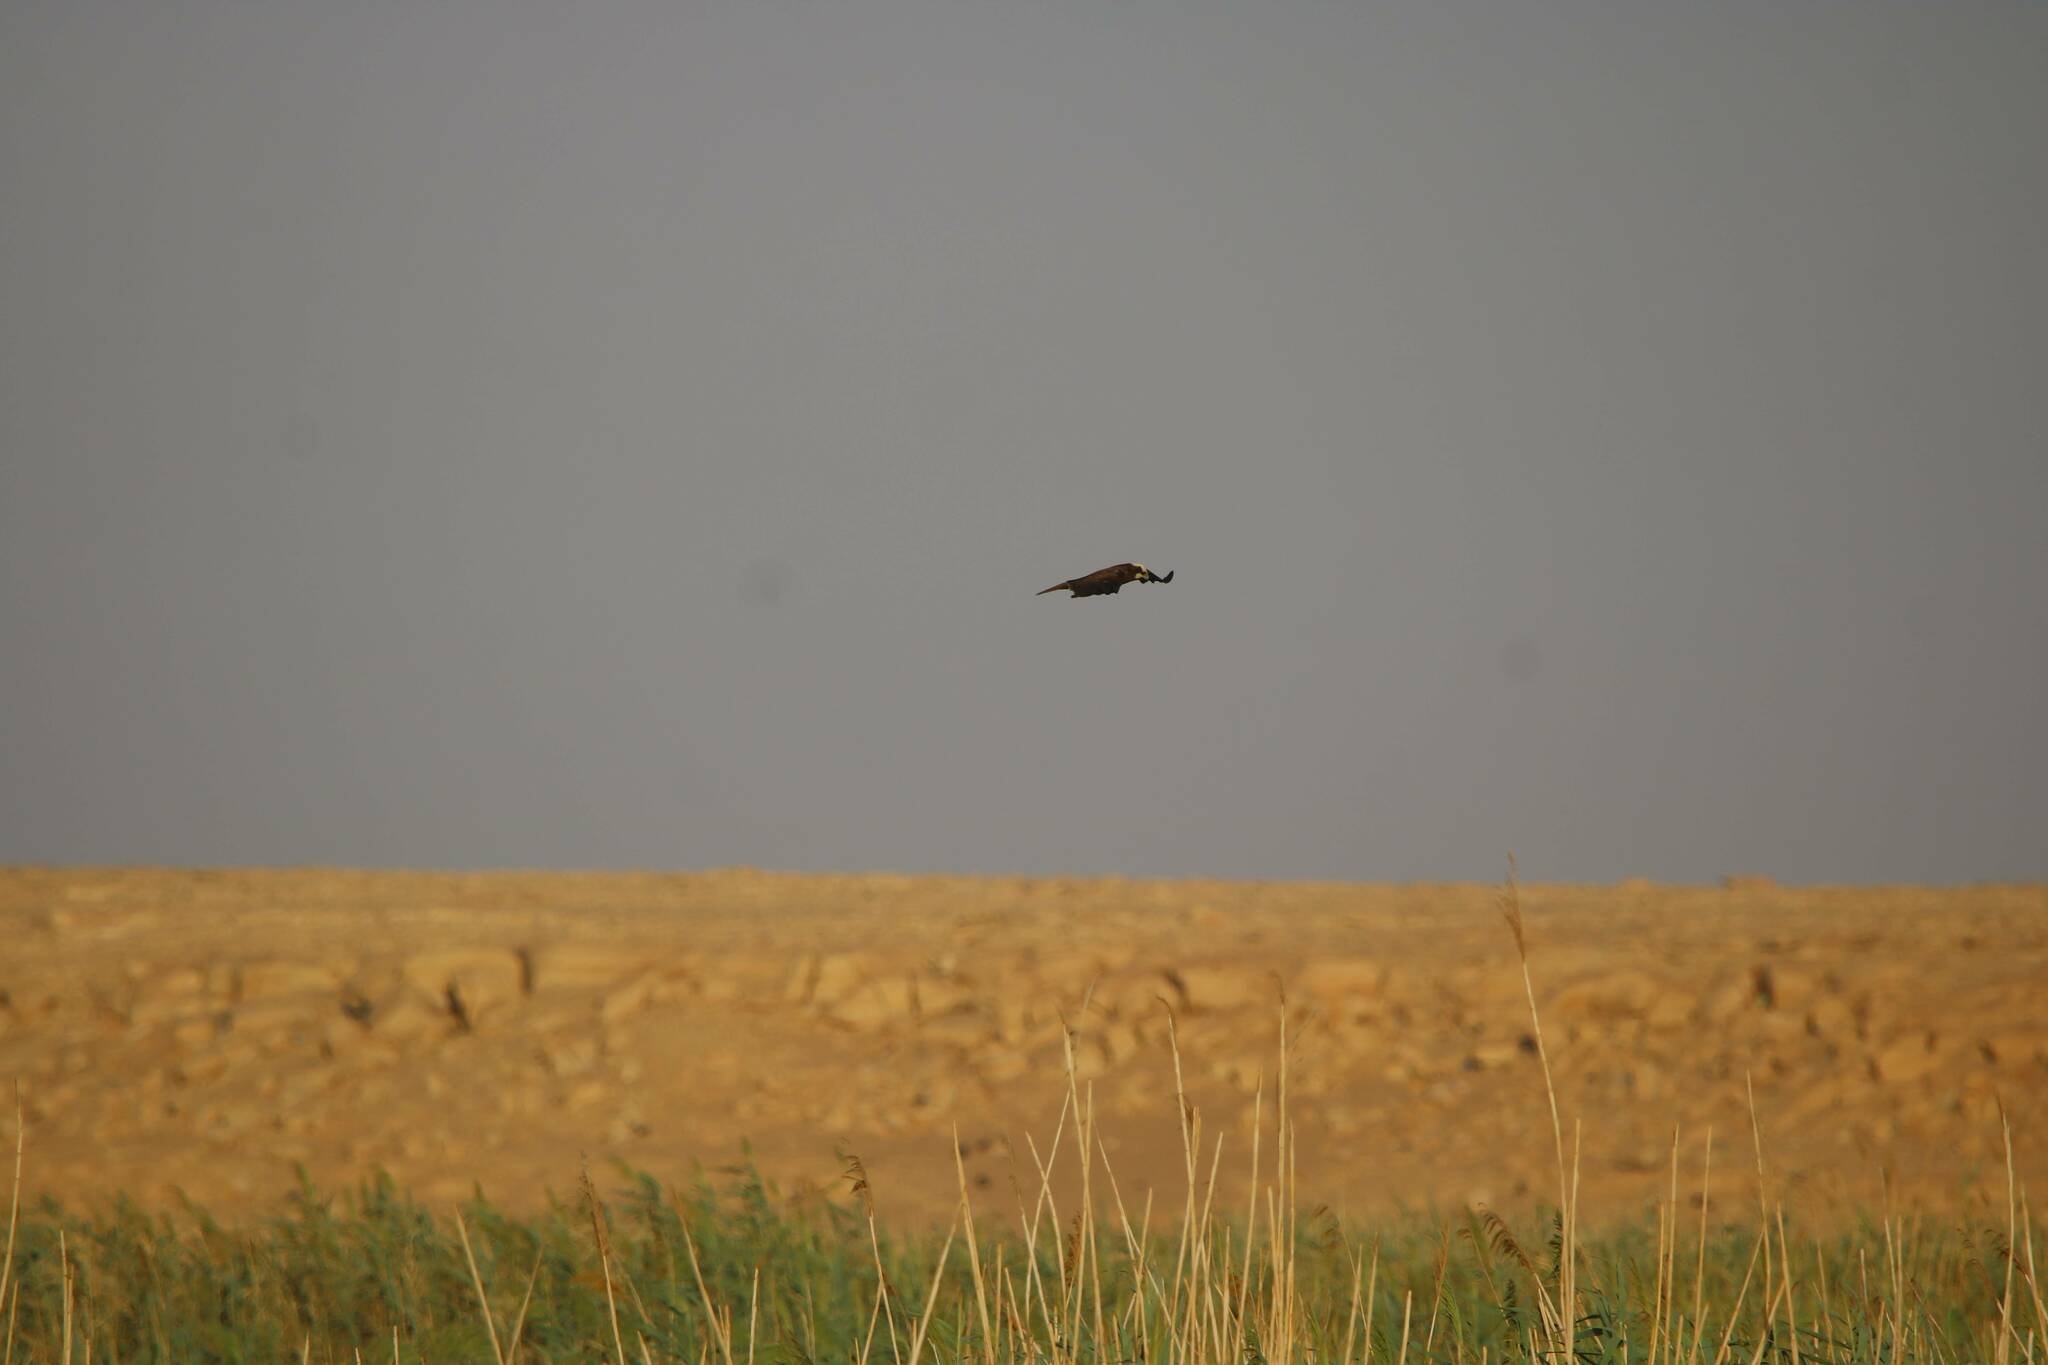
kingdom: Animalia
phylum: Chordata
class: Aves
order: Accipitriformes
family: Accipitridae
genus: Circus
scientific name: Circus aeruginosus
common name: Western marsh harrier
